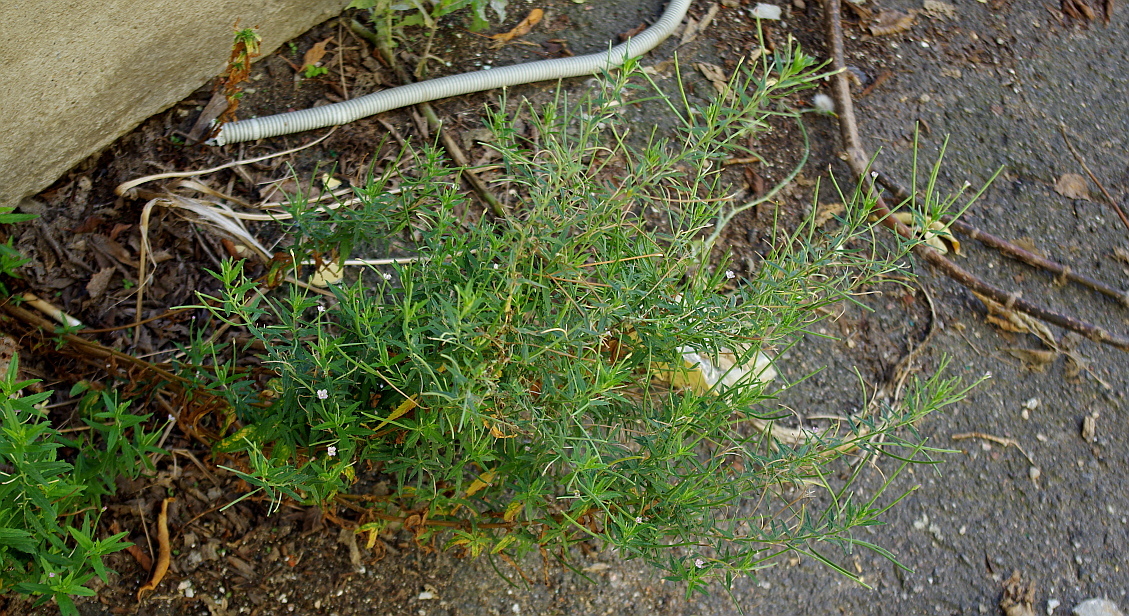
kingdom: Plantae
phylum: Tracheophyta
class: Magnoliopsida
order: Myrtales
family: Onagraceae
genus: Epilobium
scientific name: Epilobium lamyi
